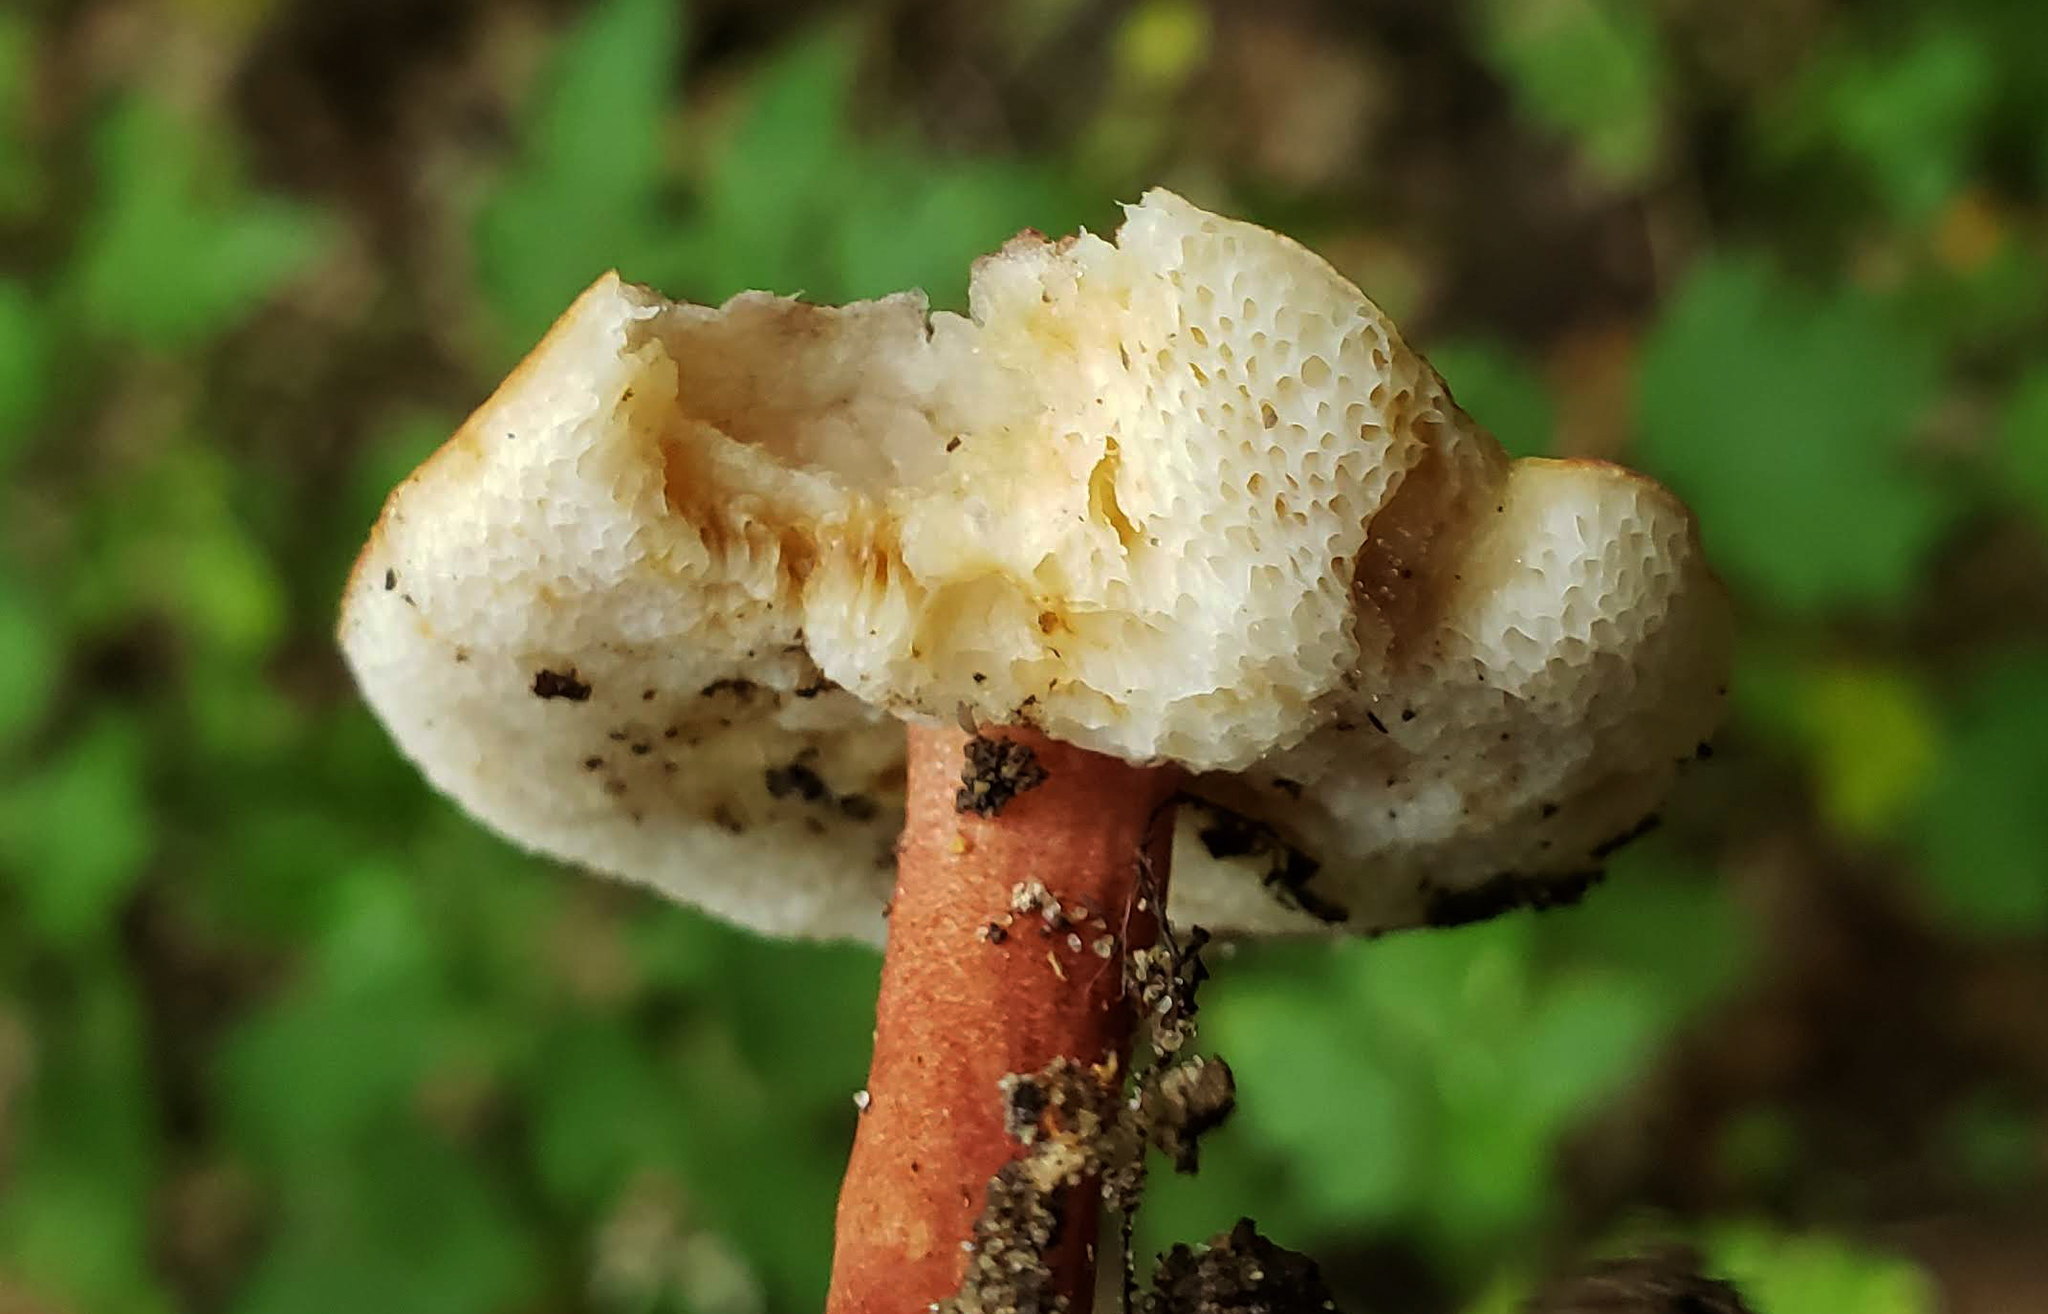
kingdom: Fungi
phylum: Basidiomycota
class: Agaricomycetes
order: Boletales
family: Gyroporaceae
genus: Gyroporus
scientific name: Gyroporus purpurinus
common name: Red gyroporus
